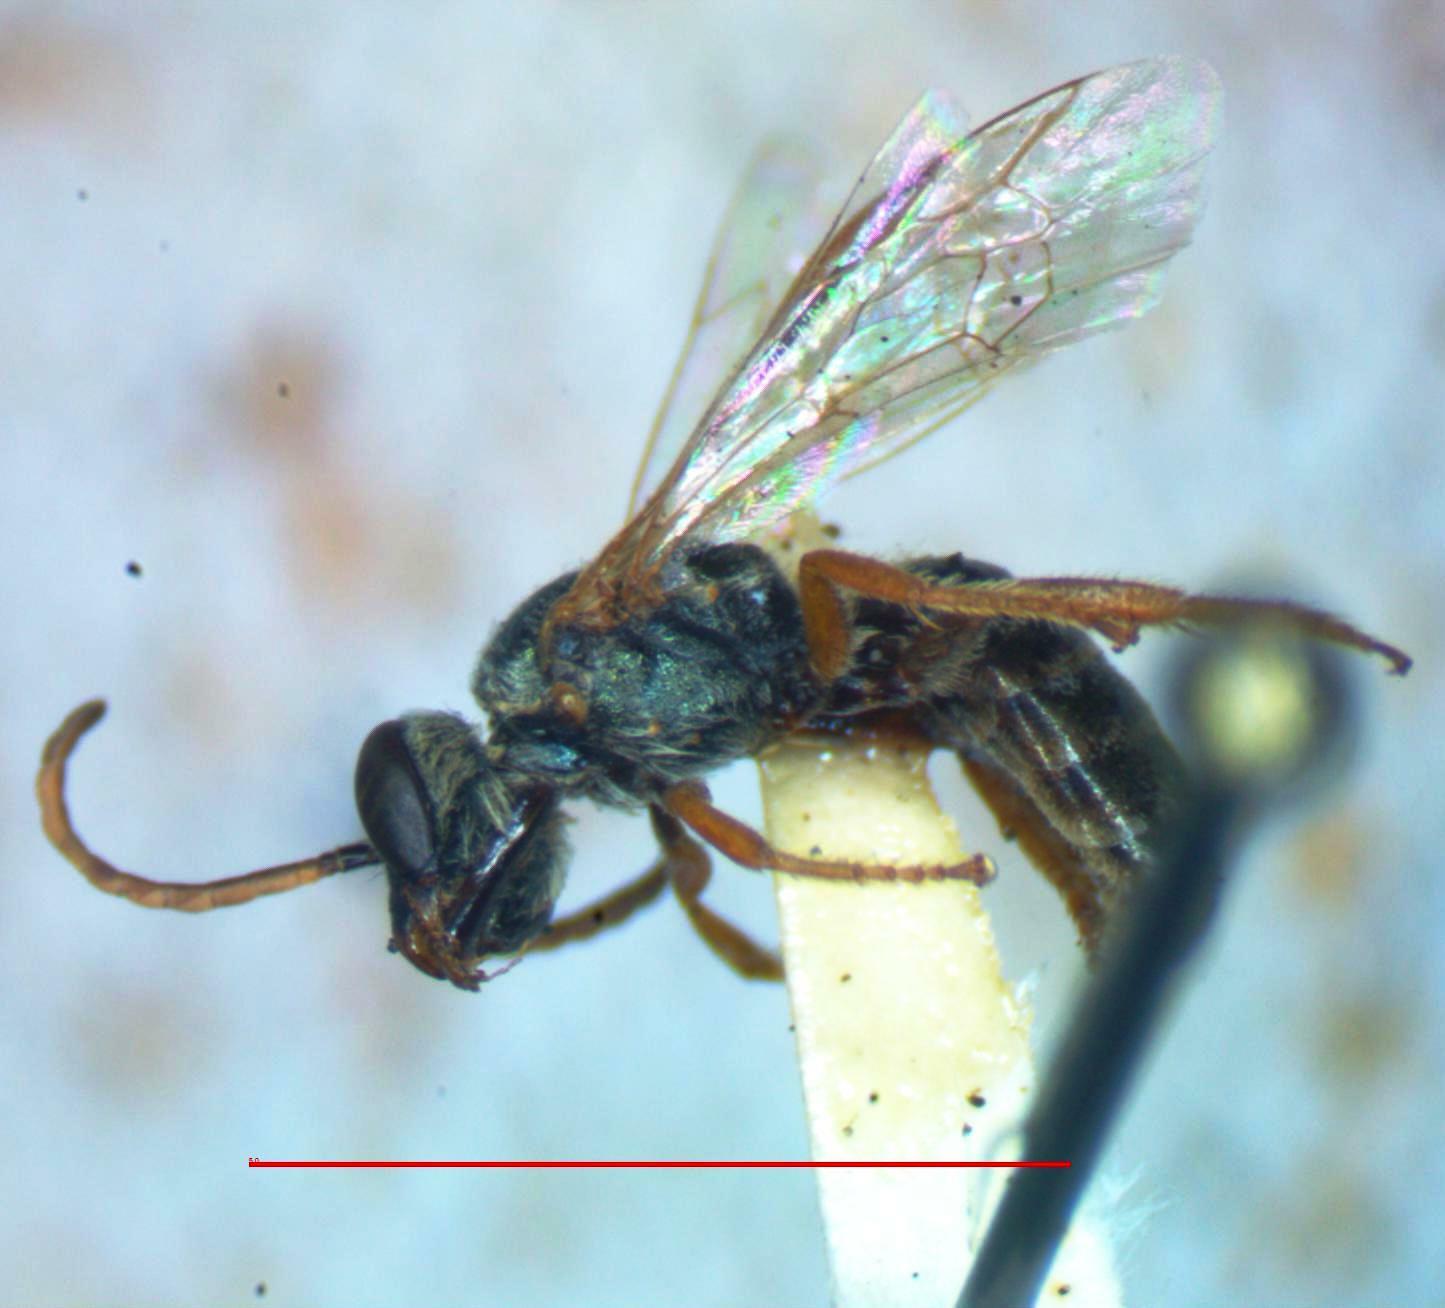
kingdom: Animalia
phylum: Arthropoda
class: Insecta
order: Hymenoptera
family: Halictidae
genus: Halictus
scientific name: Halictus hesperus
